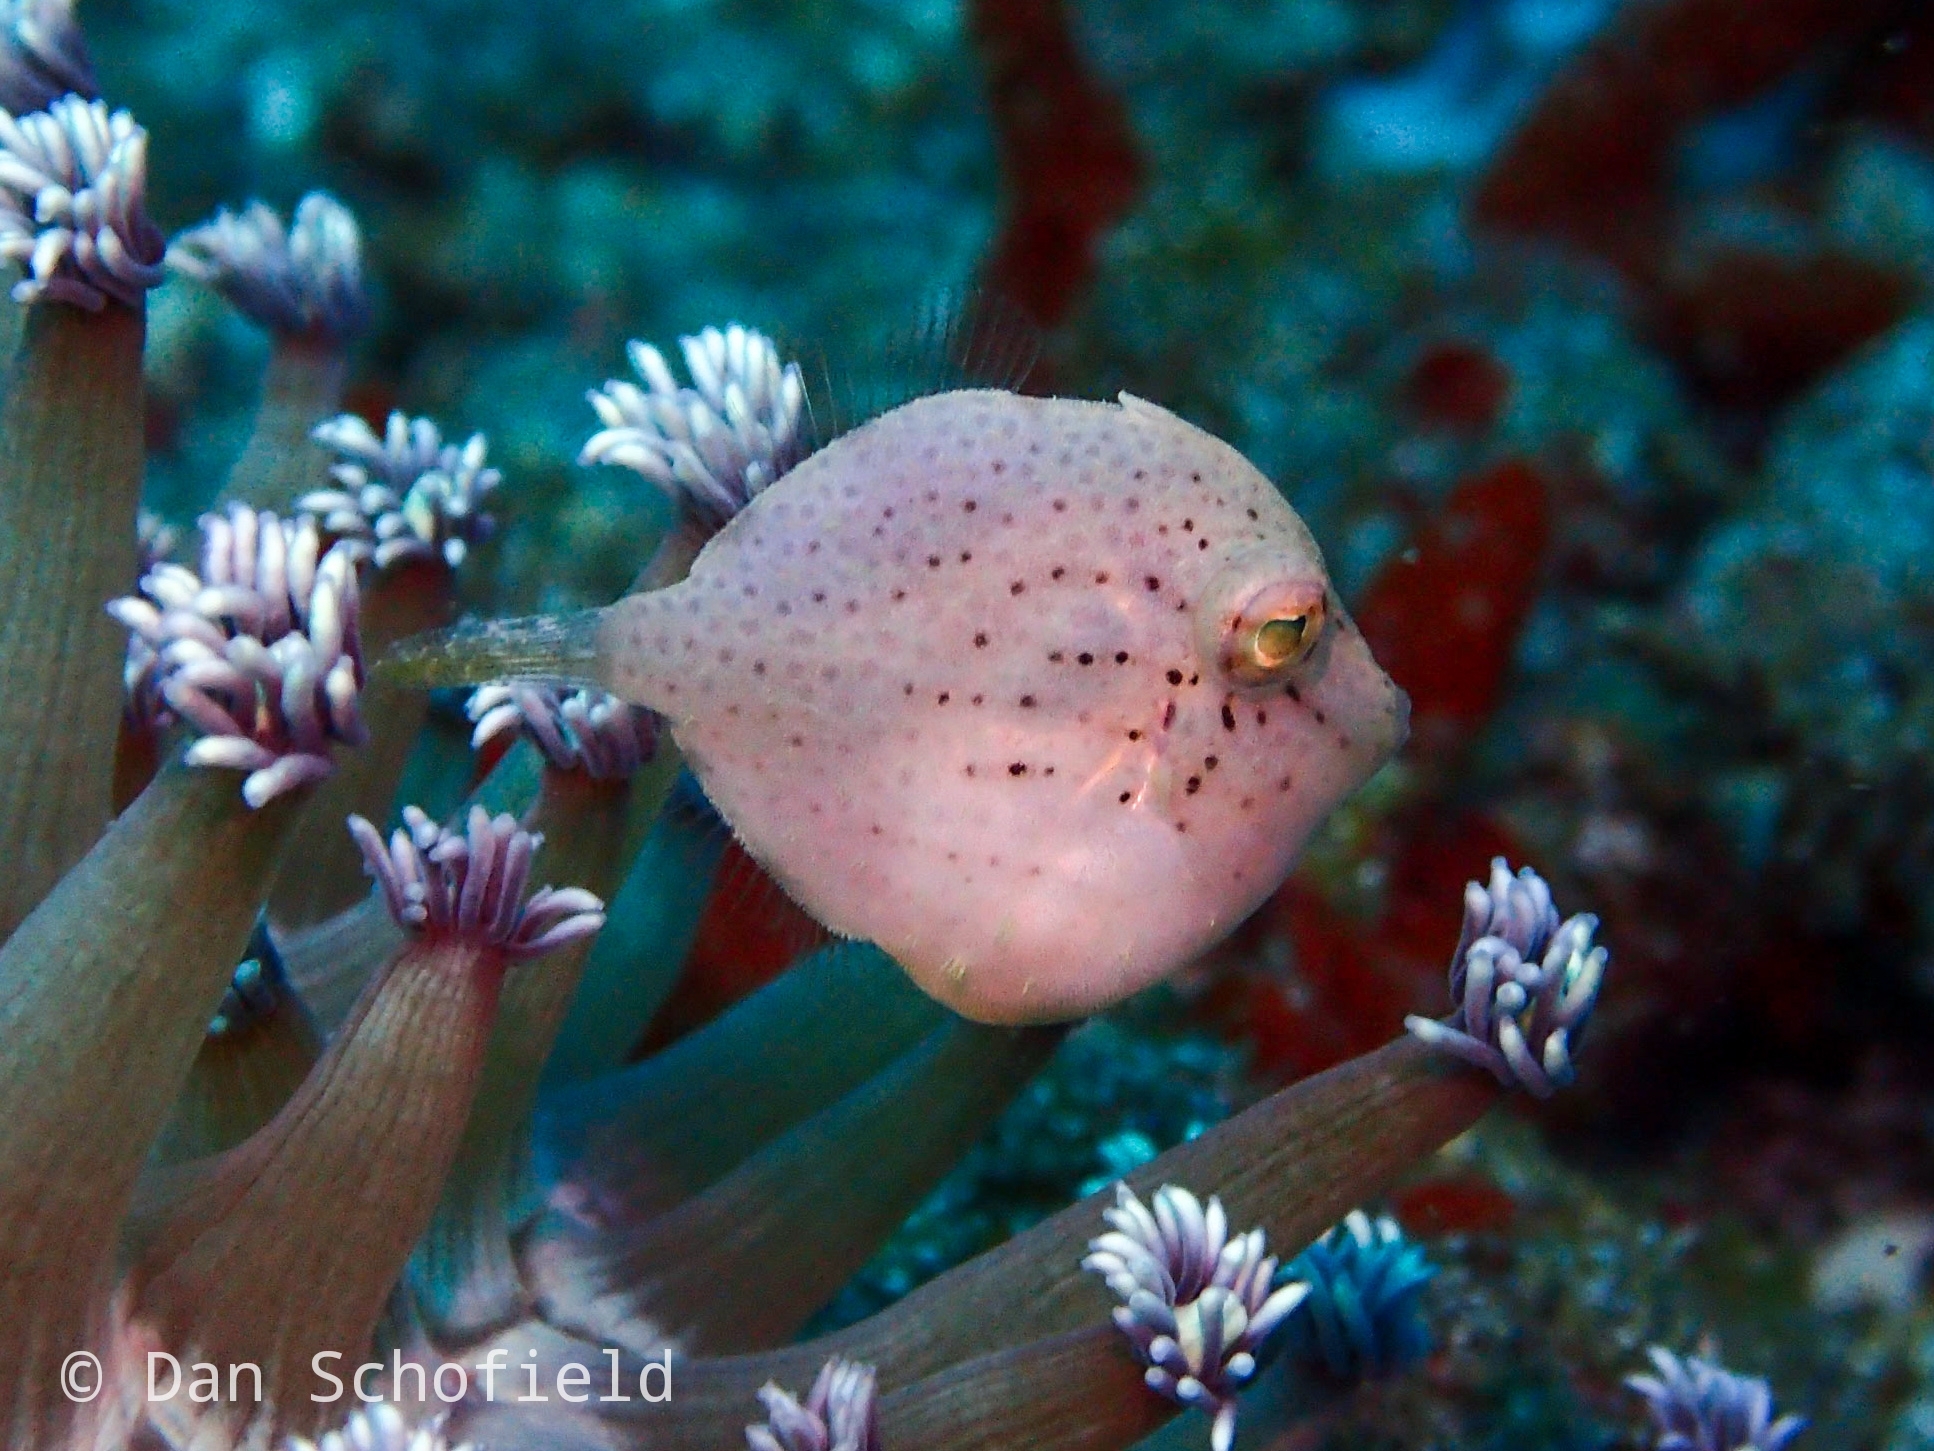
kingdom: Animalia
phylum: Chordata
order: Tetraodontiformes
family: Monacanthidae
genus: Brachaluteres
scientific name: Brachaluteres taylori
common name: Pigmy leatherjacket
